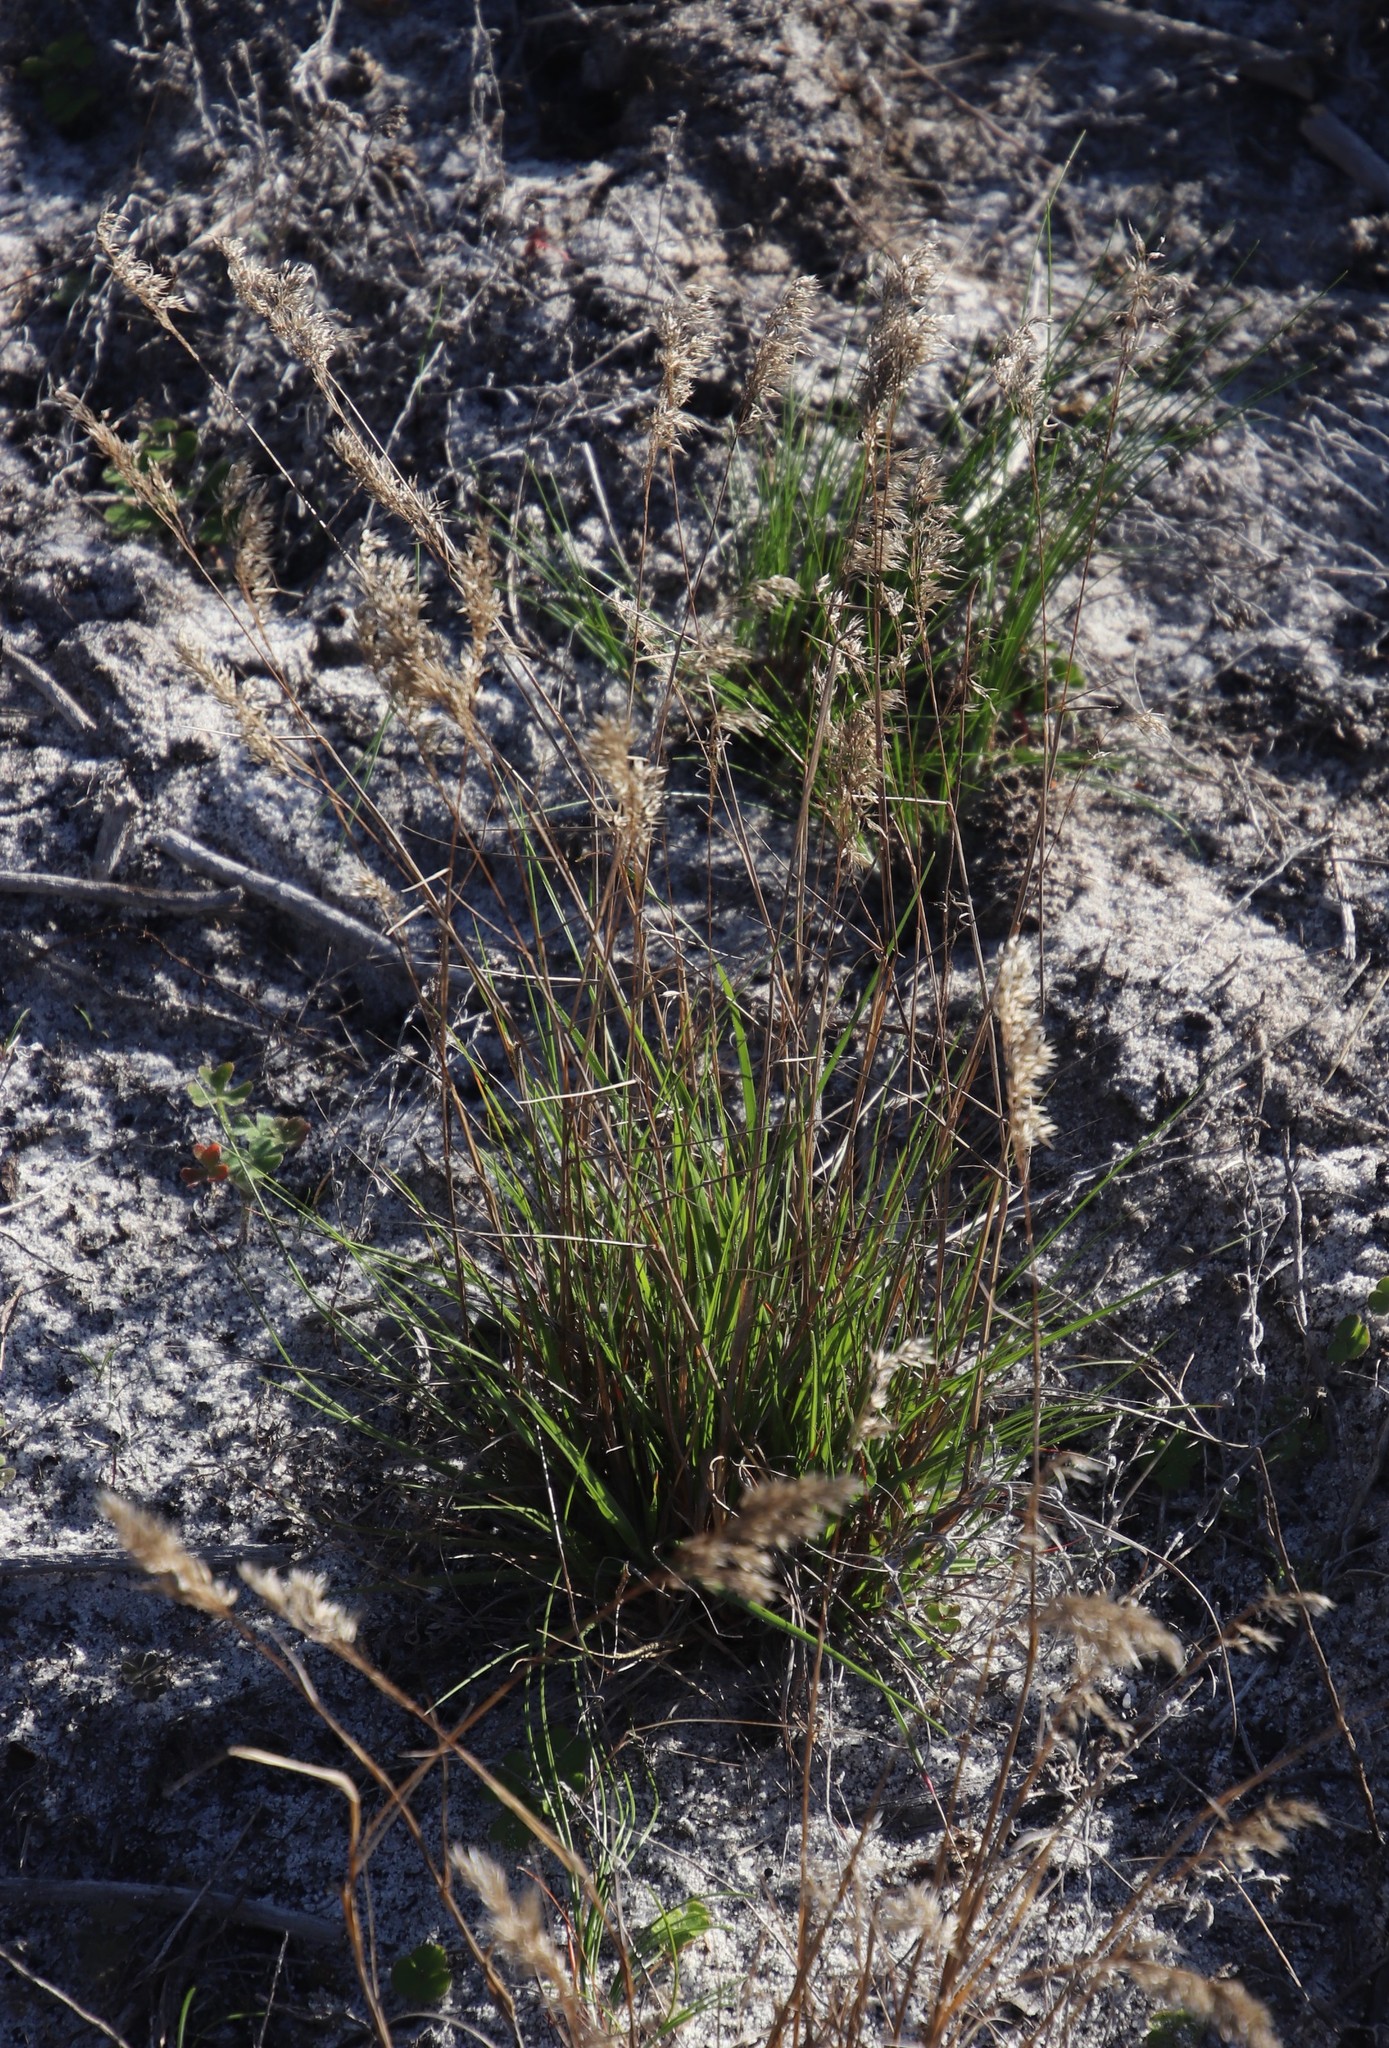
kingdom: Plantae
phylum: Tracheophyta
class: Liliopsida
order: Poales
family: Poaceae
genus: Pentameris
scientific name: Pentameris pallida
